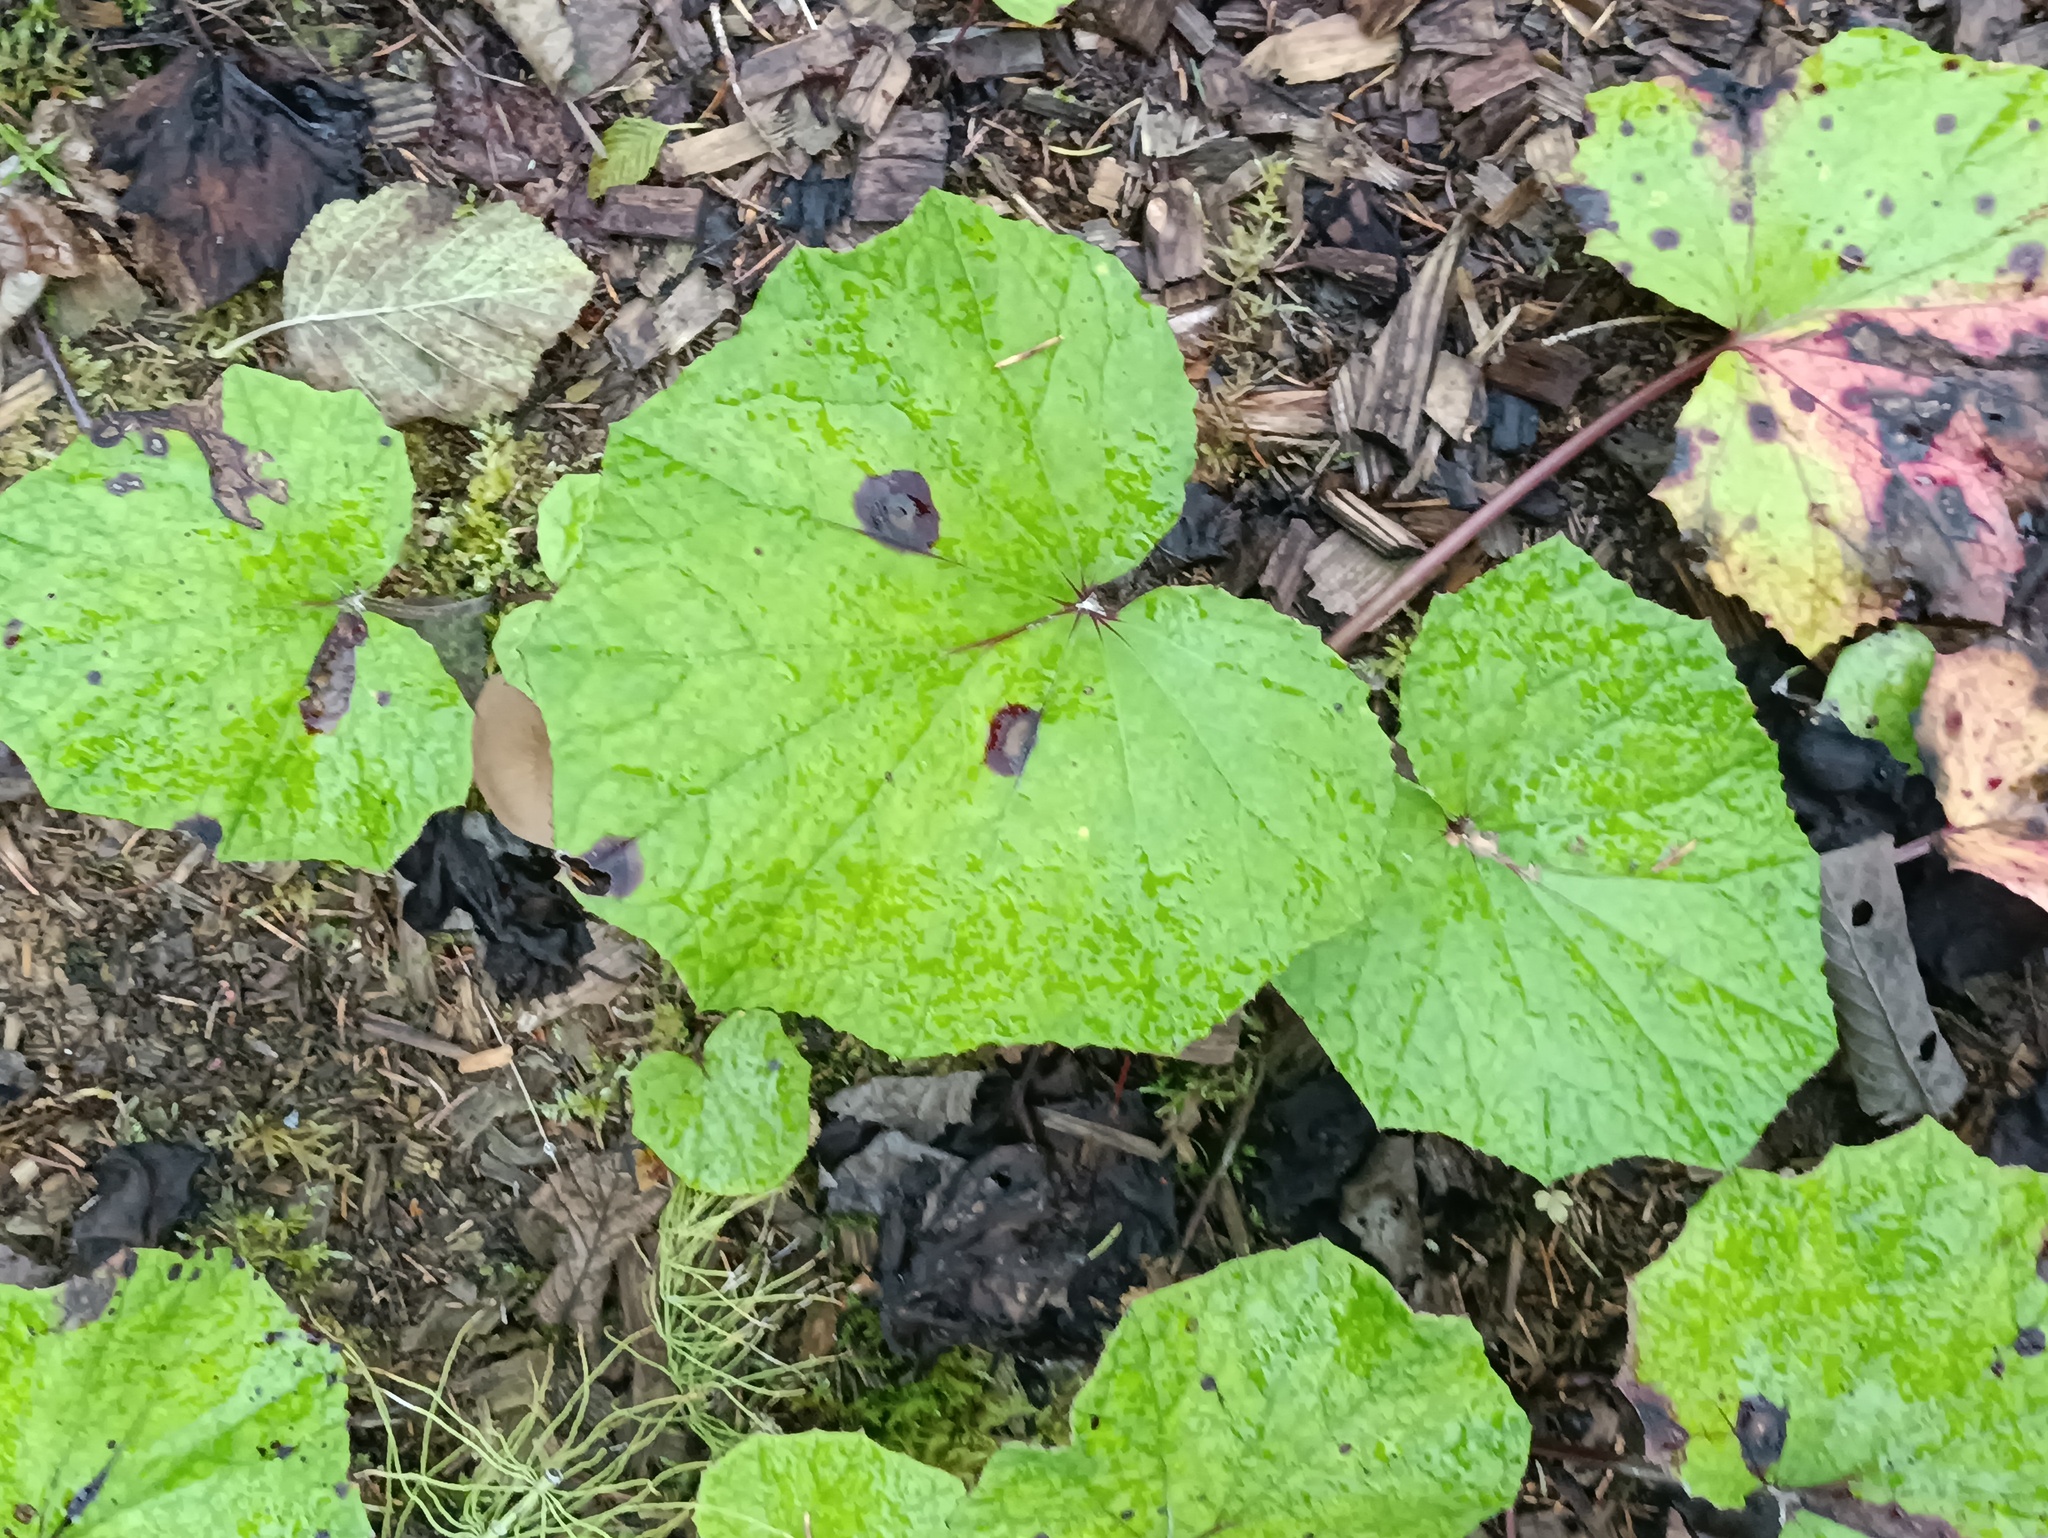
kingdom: Plantae
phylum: Tracheophyta
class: Magnoliopsida
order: Asterales
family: Asteraceae
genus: Tussilago
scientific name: Tussilago farfara
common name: Coltsfoot
